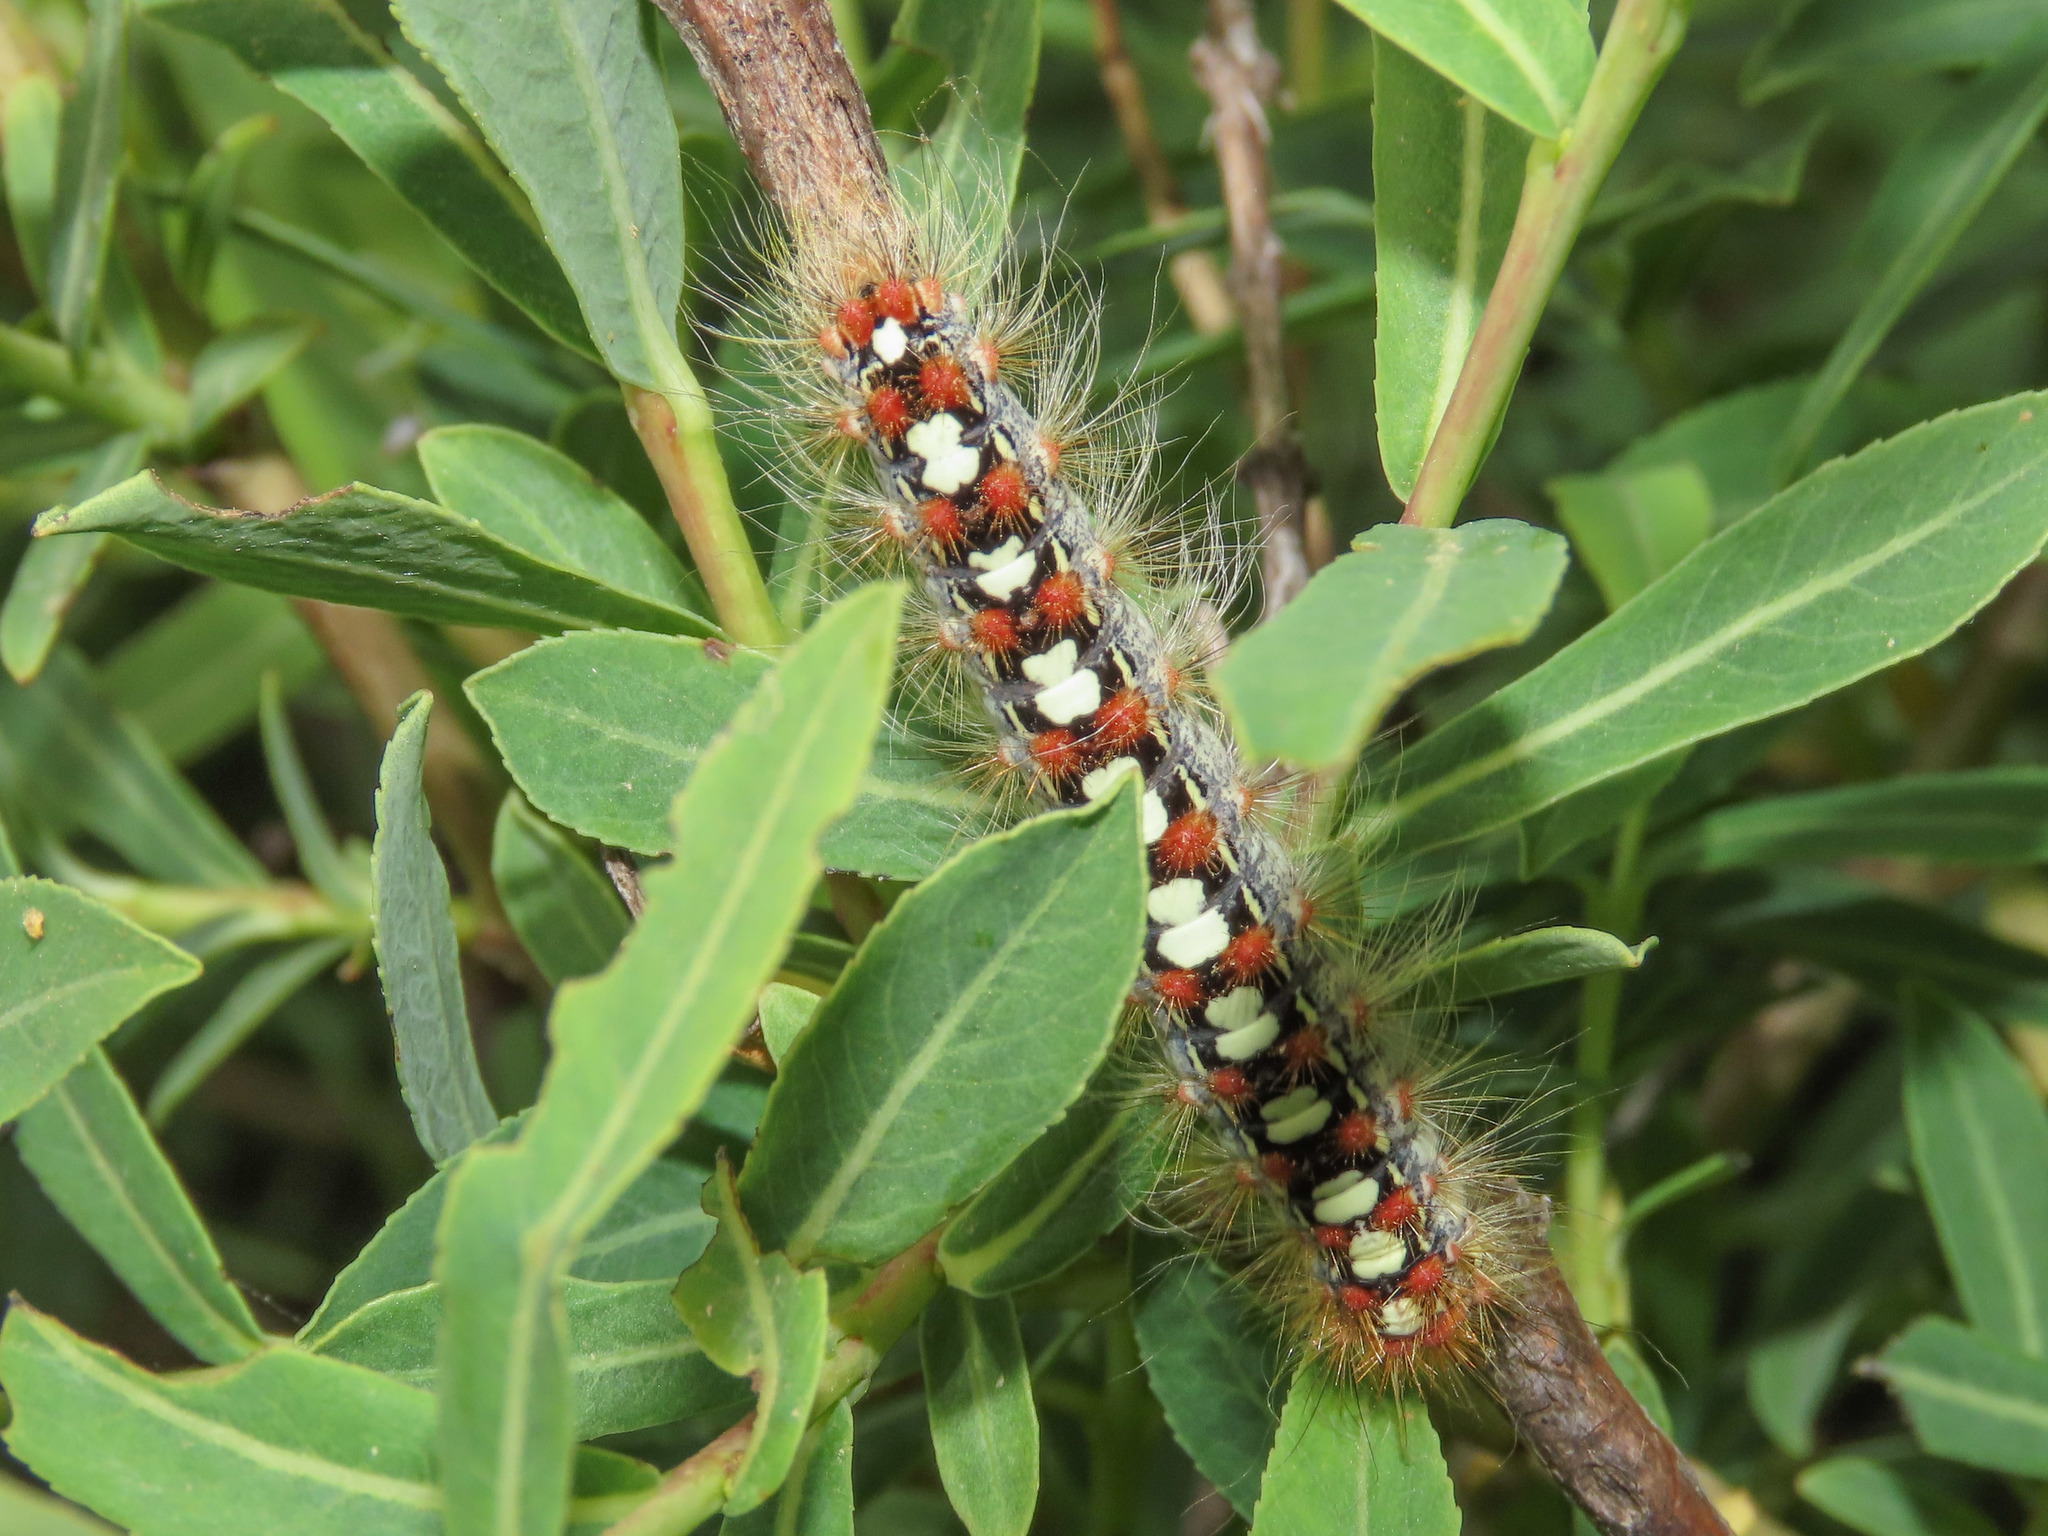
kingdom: Animalia
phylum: Arthropoda
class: Insecta
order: Lepidoptera
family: Erebidae
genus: Leucoma
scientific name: Leucoma salicis
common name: White satin moth
